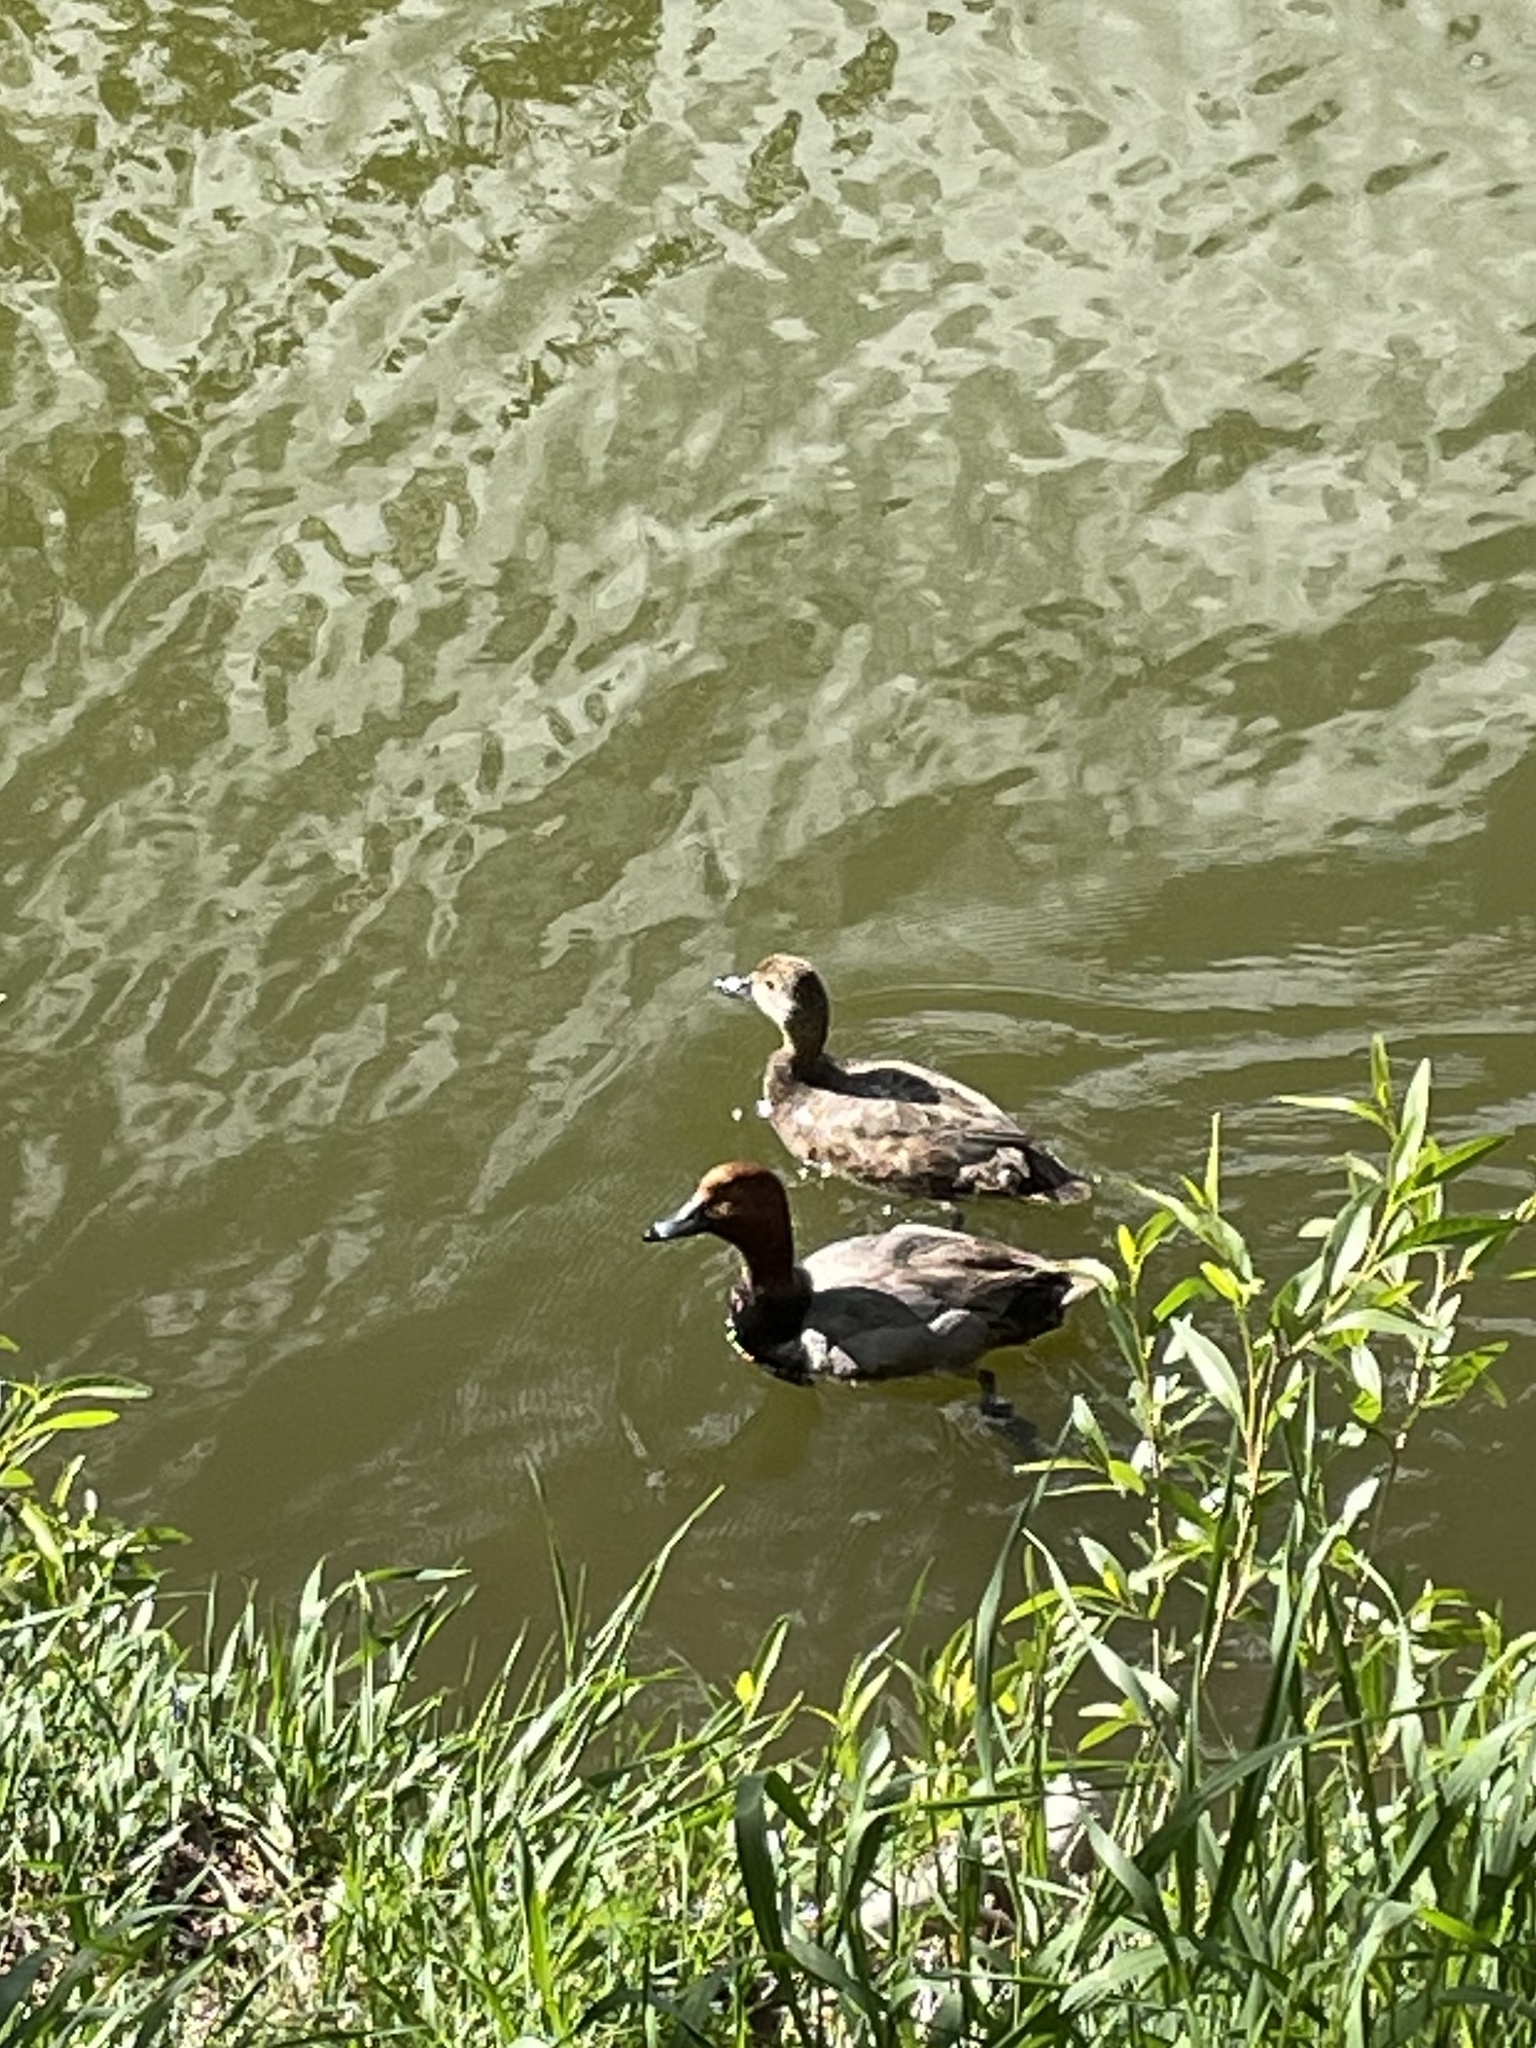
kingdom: Animalia
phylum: Chordata
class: Aves
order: Anseriformes
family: Anatidae
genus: Aythya
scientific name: Aythya americana
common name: Redhead
